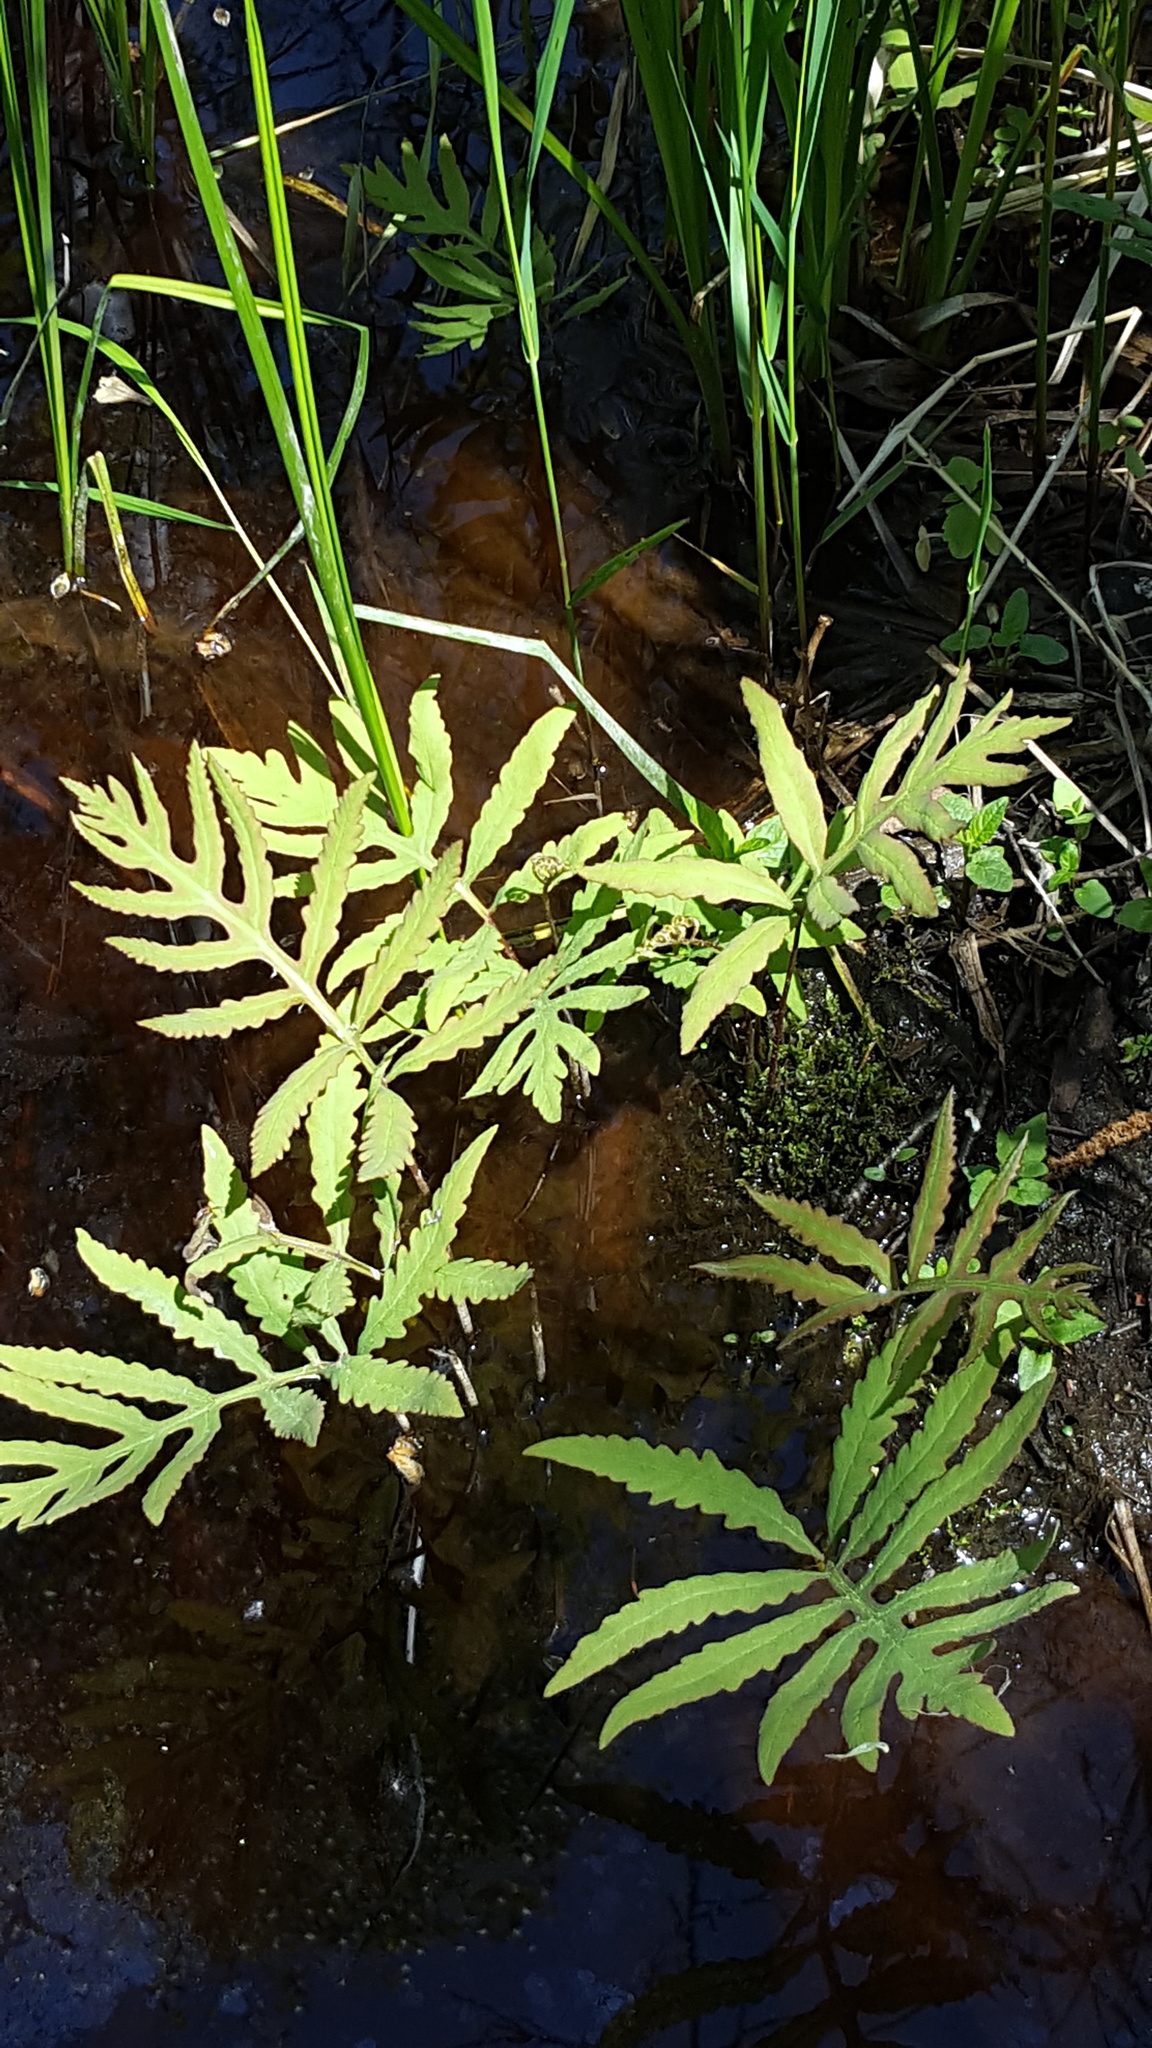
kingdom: Plantae
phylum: Tracheophyta
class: Polypodiopsida
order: Polypodiales
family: Onocleaceae
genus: Onoclea
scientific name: Onoclea sensibilis
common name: Sensitive fern
